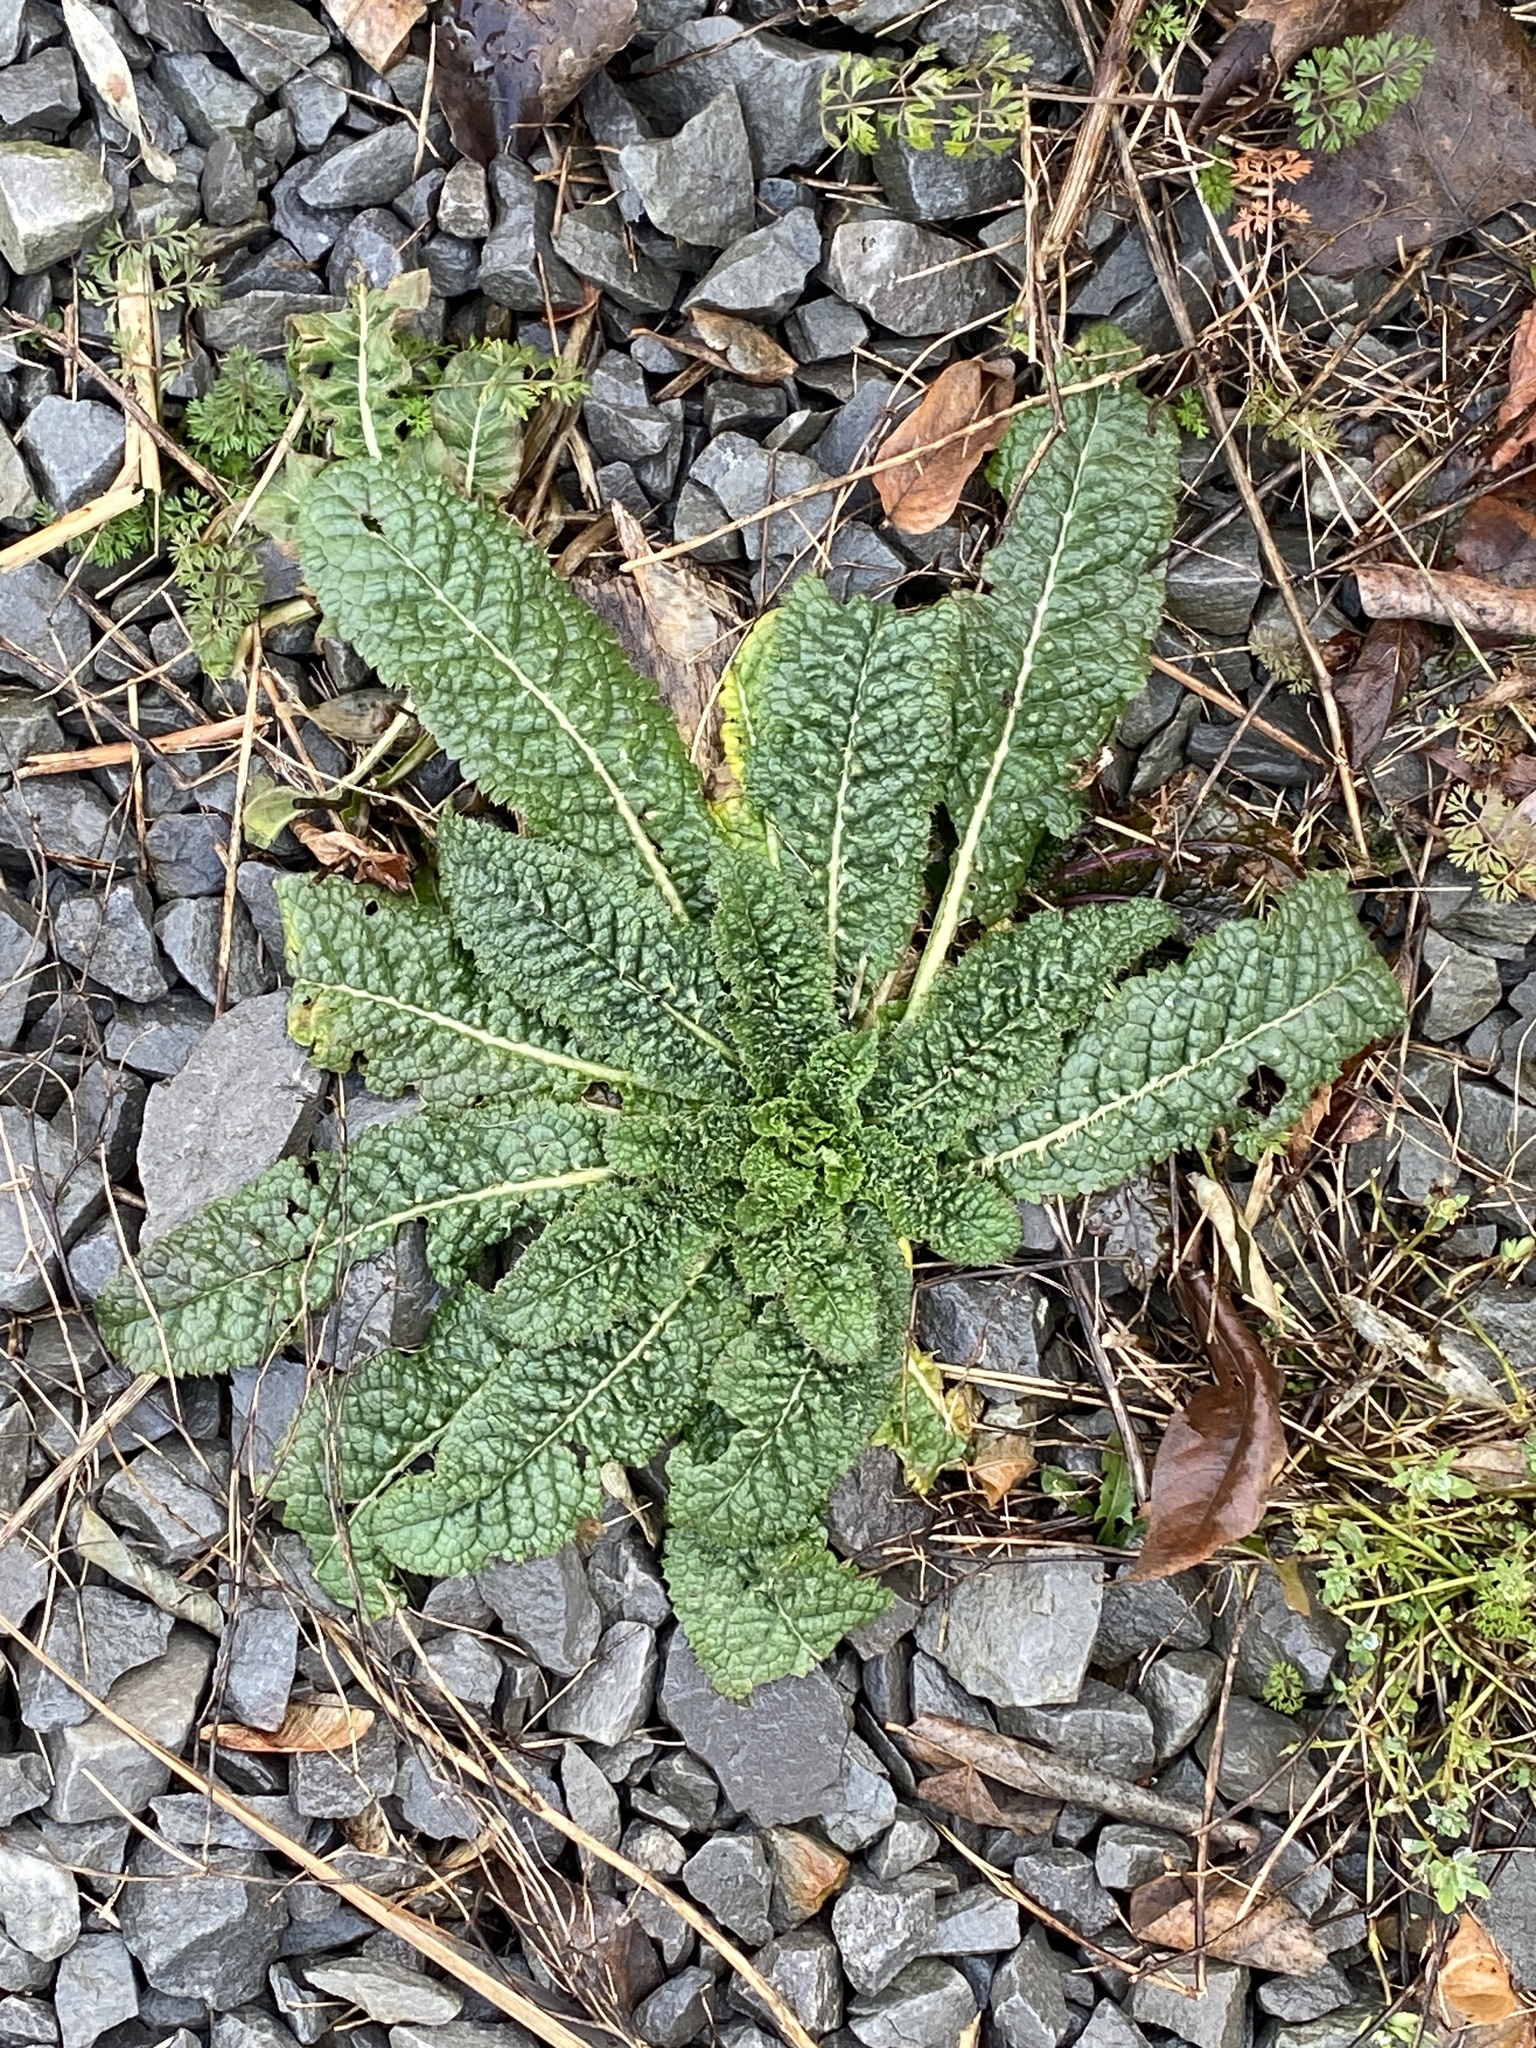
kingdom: Plantae
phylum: Tracheophyta
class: Magnoliopsida
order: Dipsacales
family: Caprifoliaceae
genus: Dipsacus
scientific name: Dipsacus fullonum
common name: Teasel
